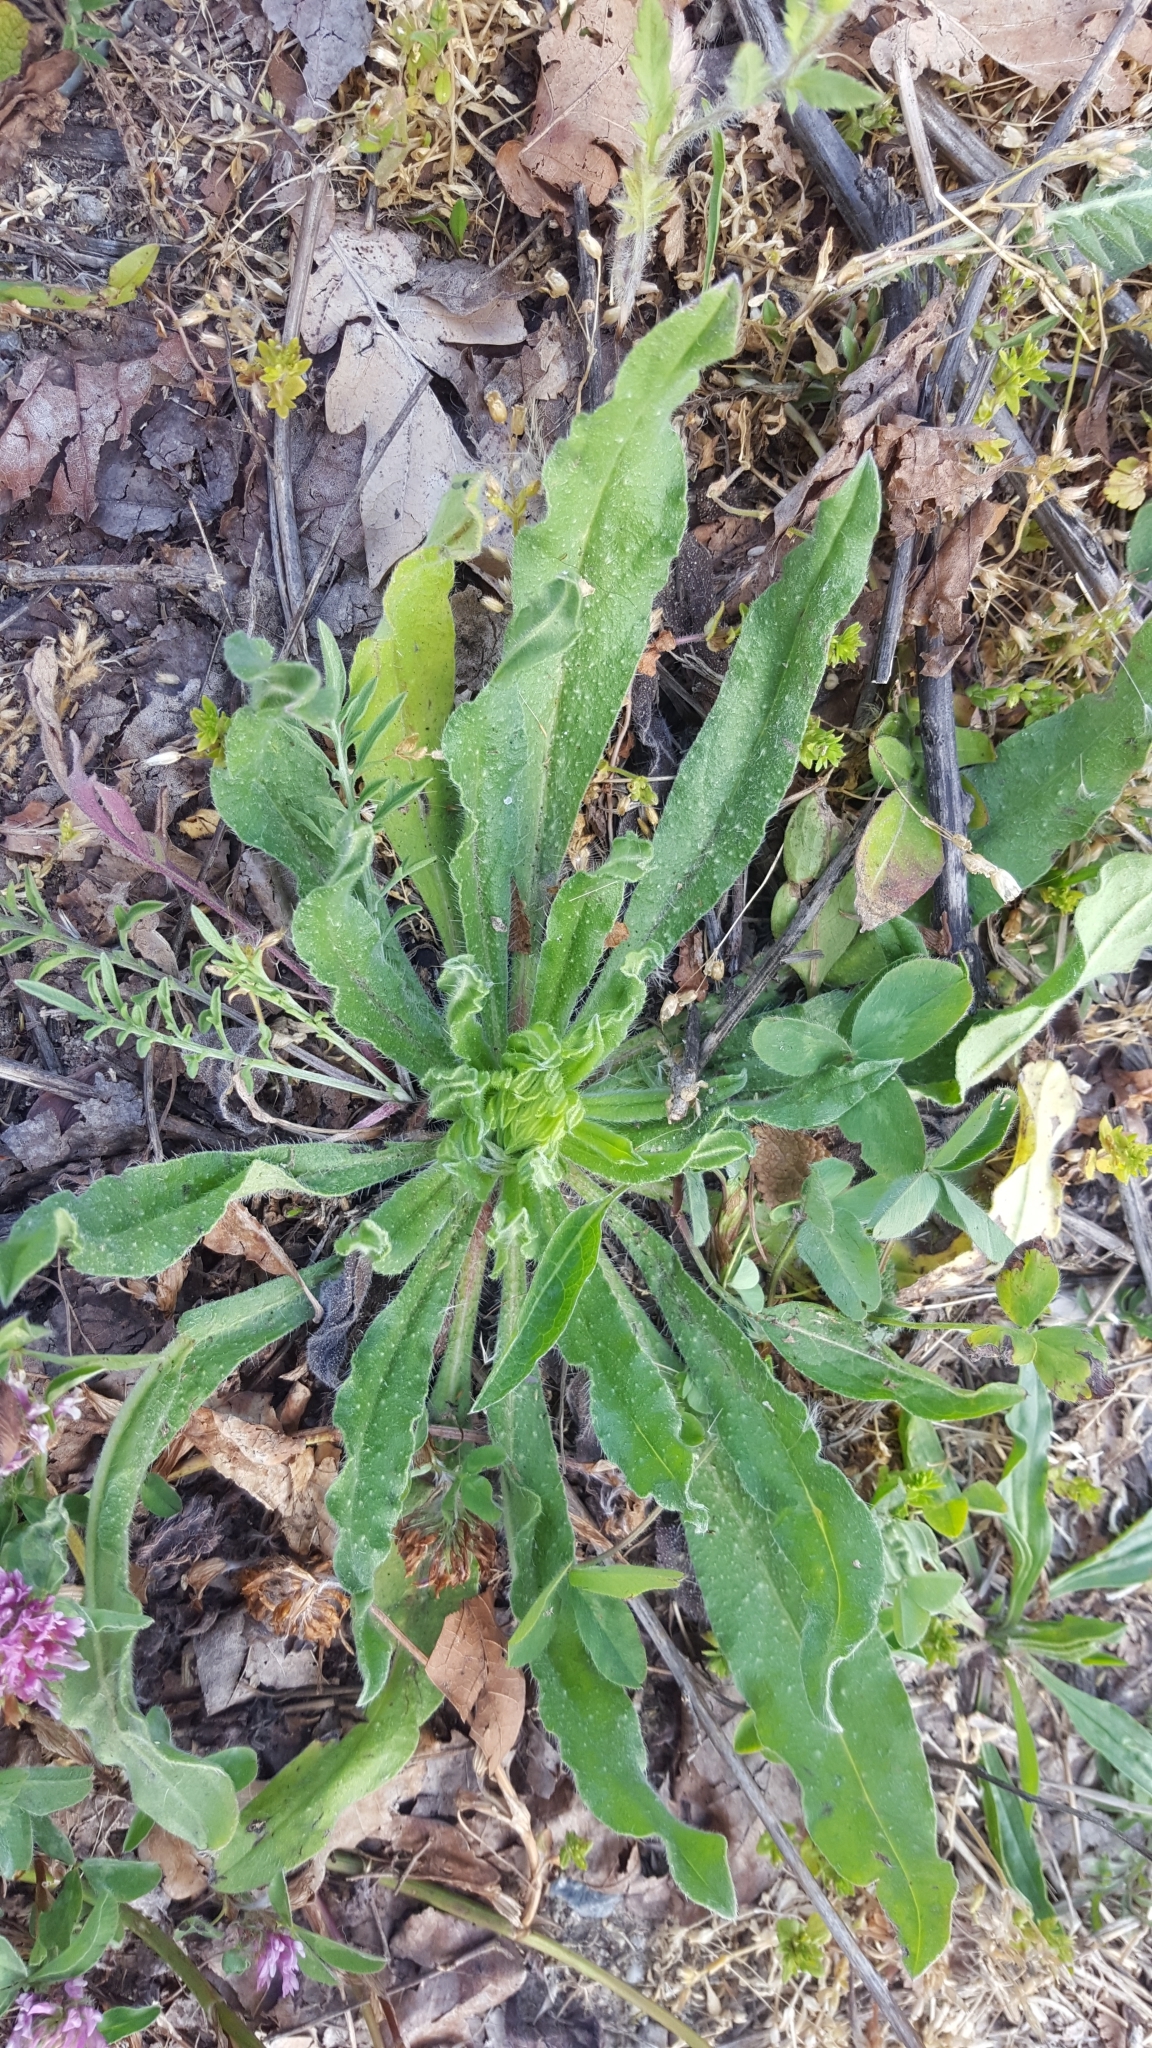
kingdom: Plantae
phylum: Tracheophyta
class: Magnoliopsida
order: Boraginales
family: Boraginaceae
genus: Echium
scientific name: Echium vulgare
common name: Common viper's bugloss
